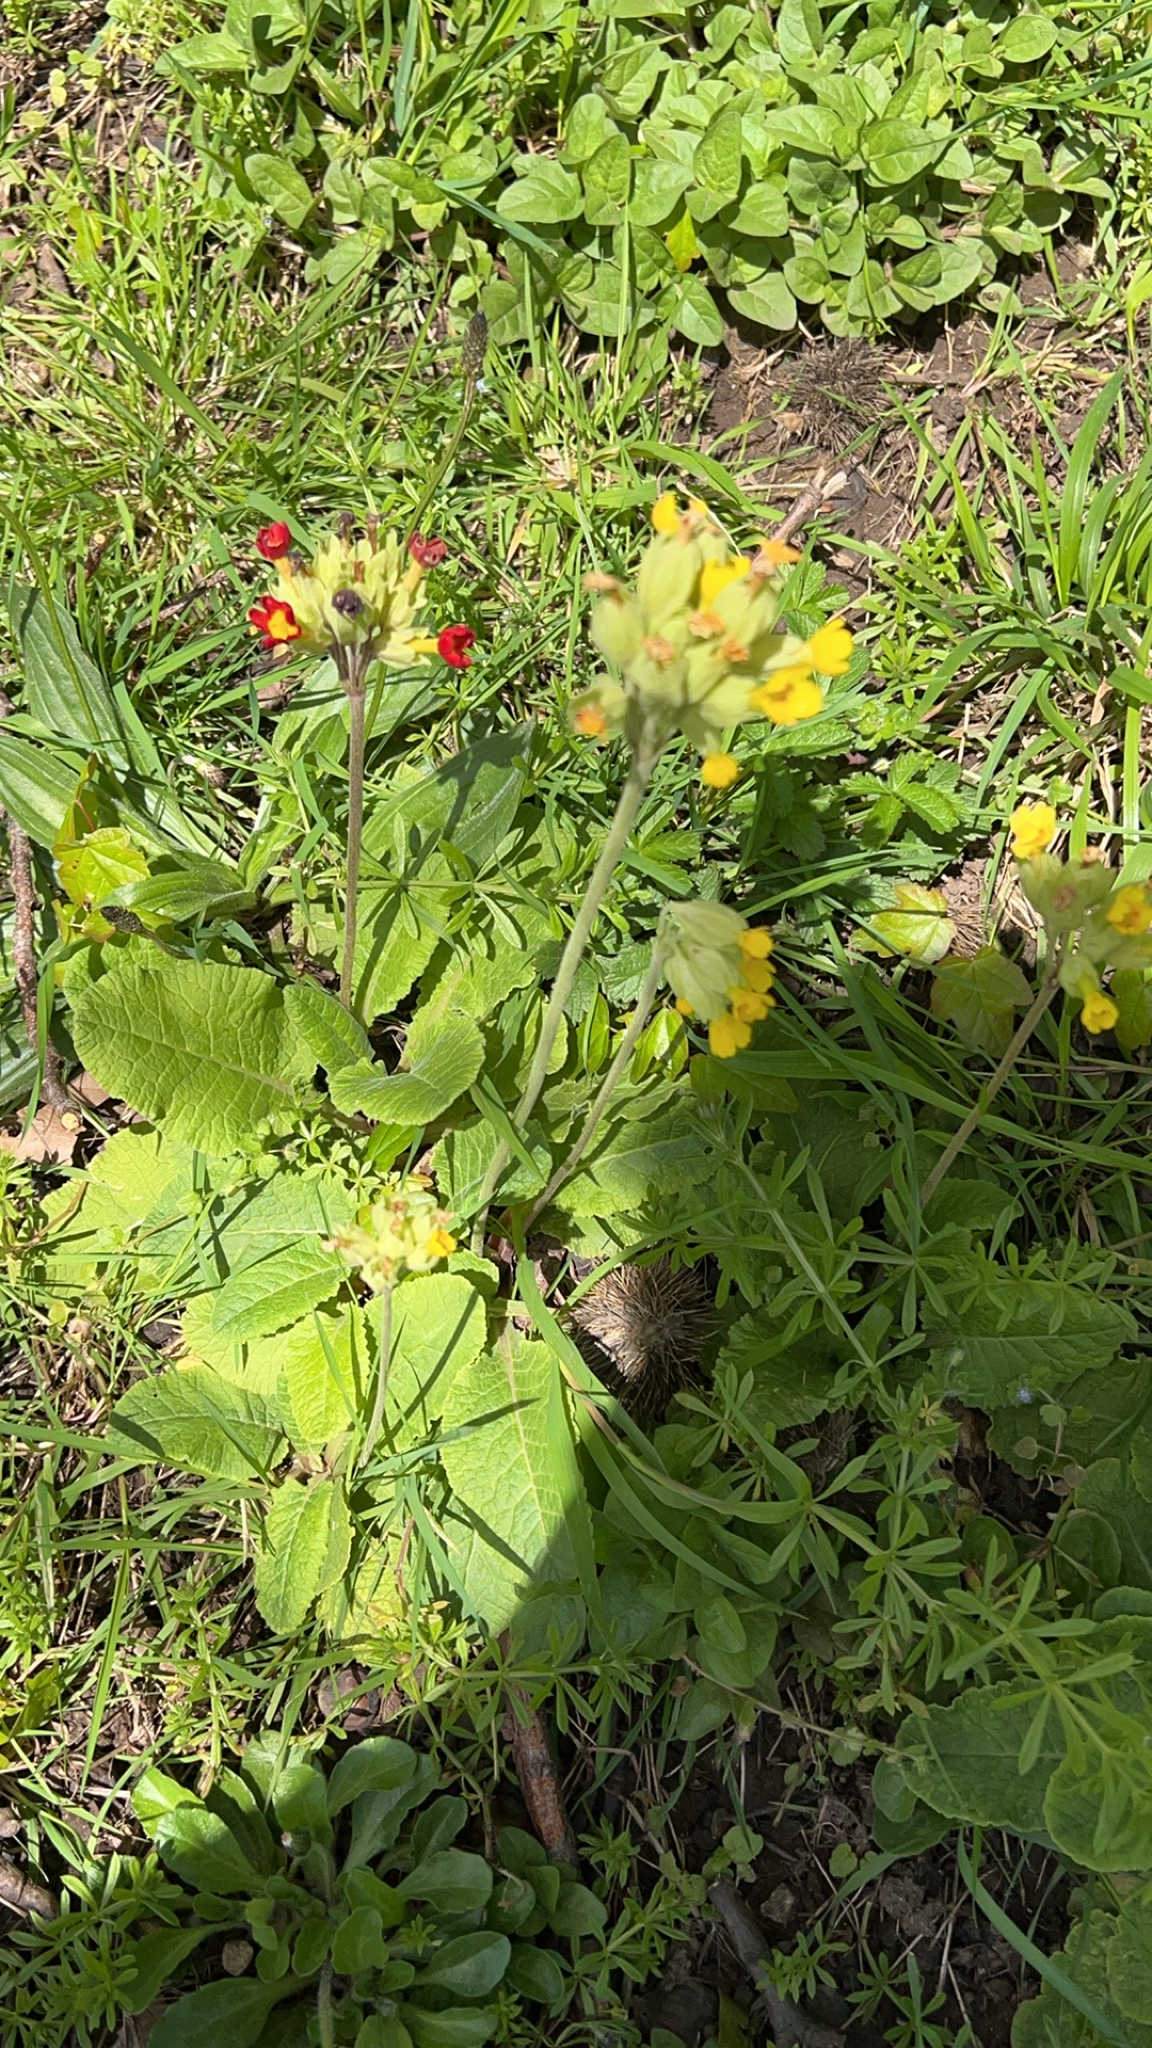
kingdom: Plantae
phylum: Tracheophyta
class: Magnoliopsida
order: Ericales
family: Primulaceae
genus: Primula
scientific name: Primula veris
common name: Cowslip
